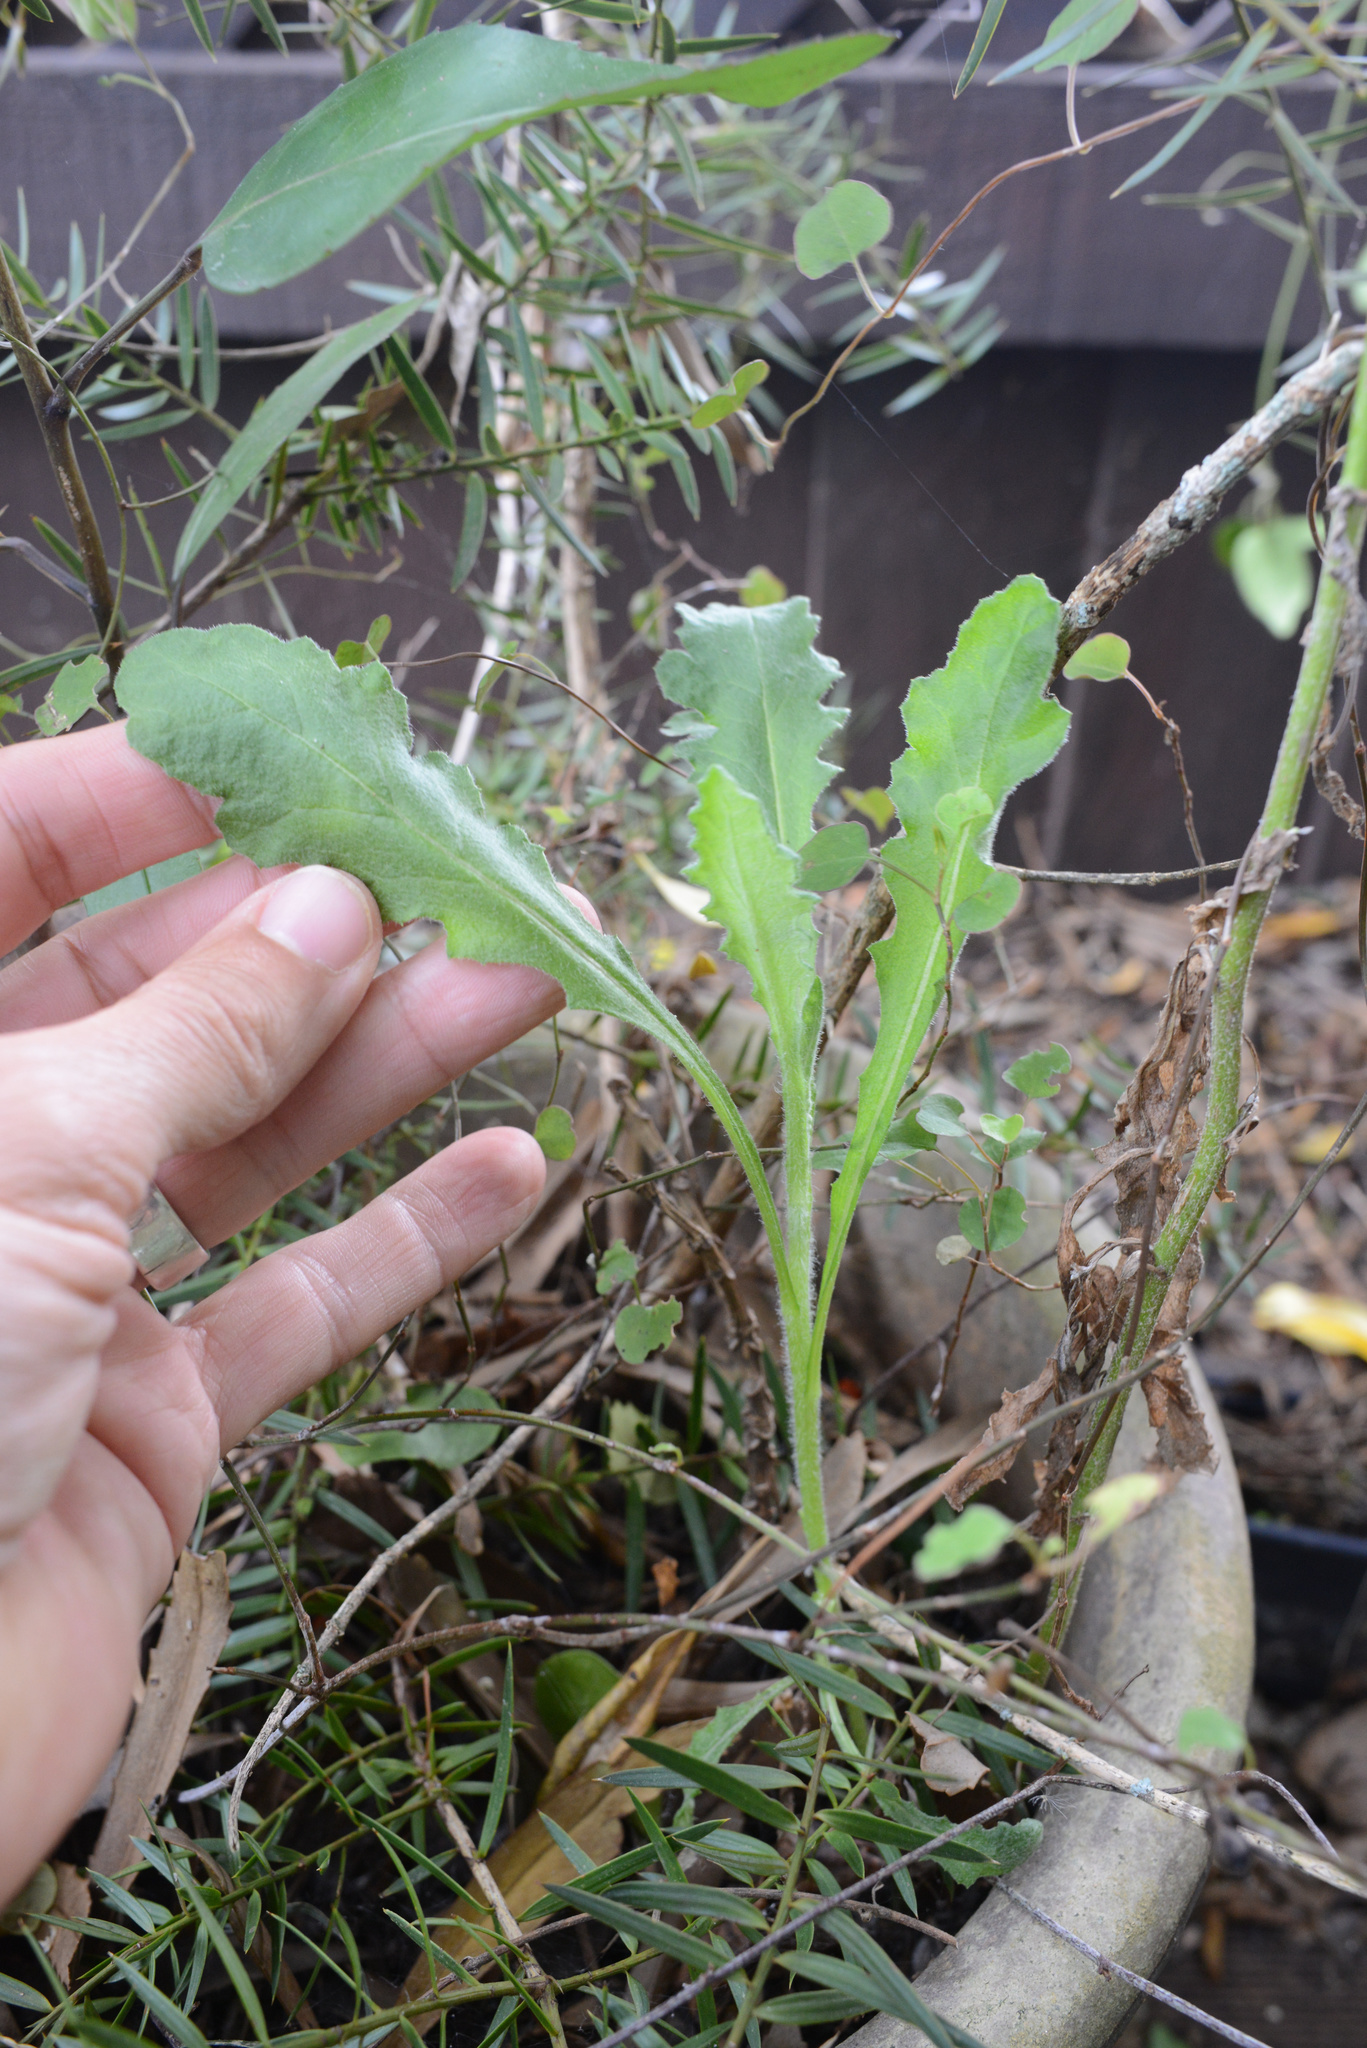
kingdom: Plantae
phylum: Tracheophyta
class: Magnoliopsida
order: Asterales
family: Asteraceae
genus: Senecio
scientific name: Senecio glomeratus
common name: Cutleaf burnweed
